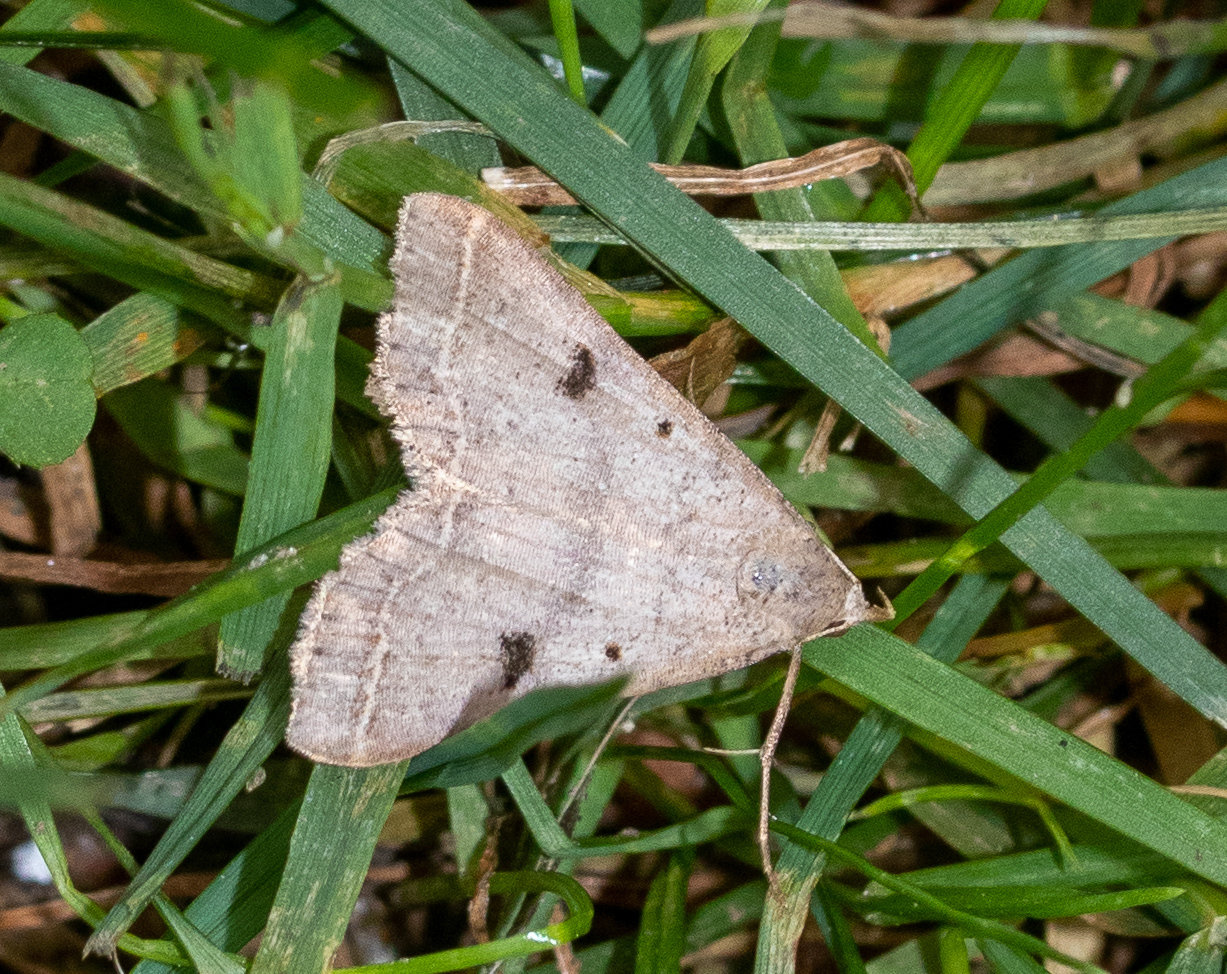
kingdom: Animalia
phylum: Arthropoda
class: Insecta
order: Lepidoptera
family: Erebidae
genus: Bleptina
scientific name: Bleptina caradrinalis
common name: Bent-winged owlet
